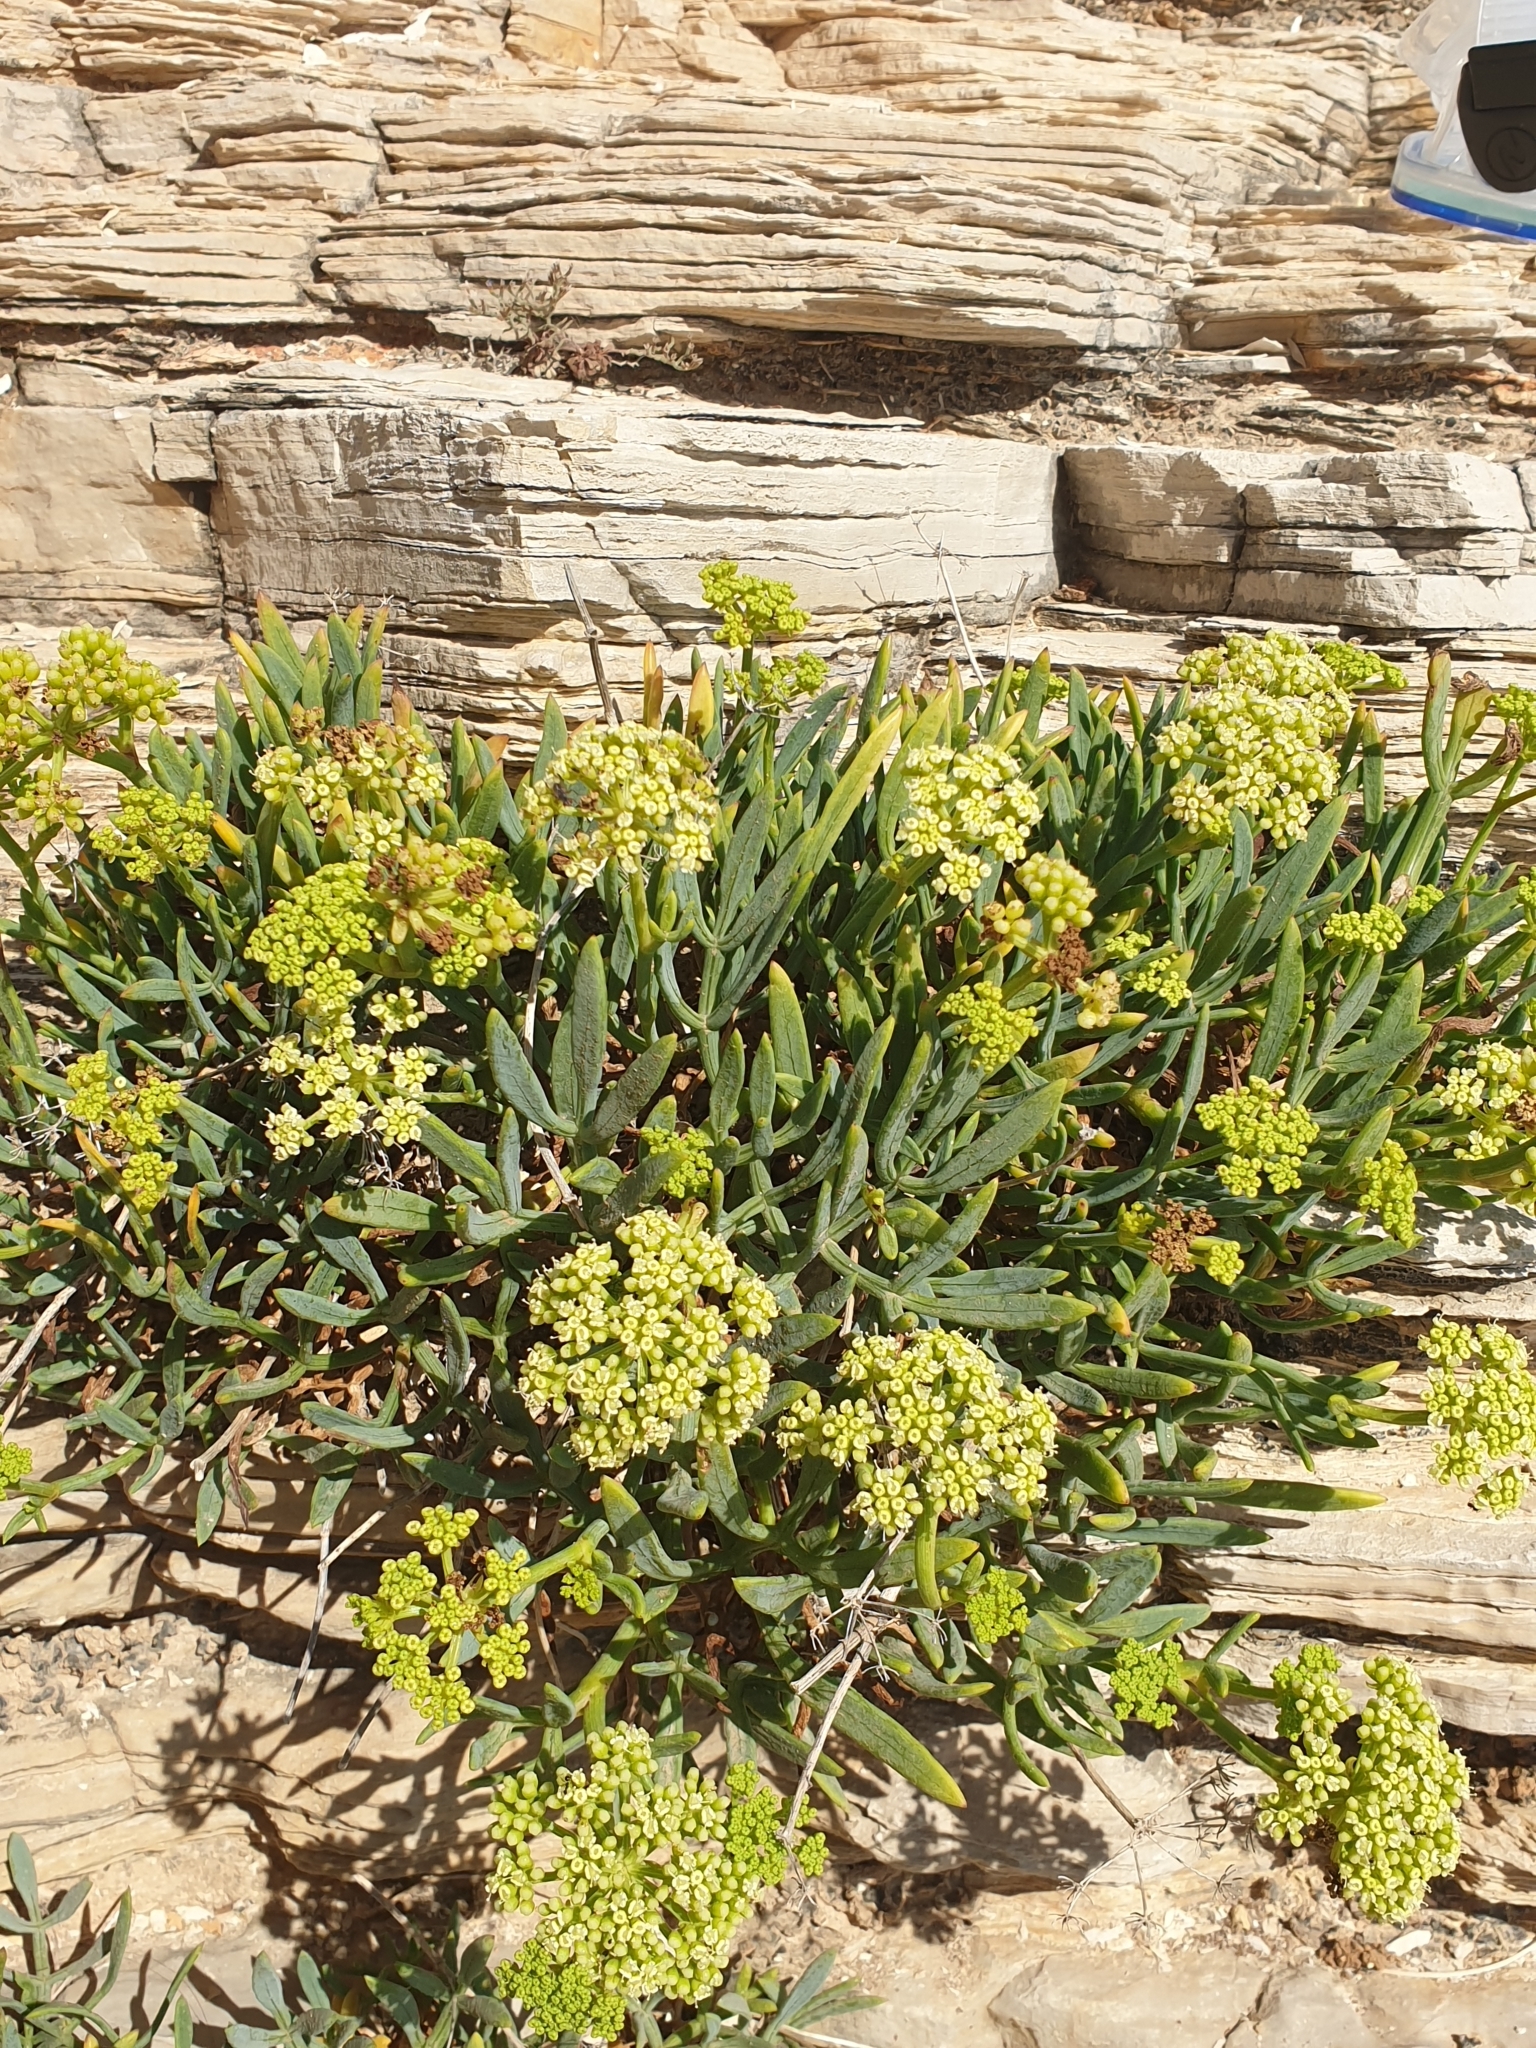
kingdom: Plantae
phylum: Tracheophyta
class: Magnoliopsida
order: Apiales
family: Apiaceae
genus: Crithmum
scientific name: Crithmum maritimum
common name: Rock samphire
